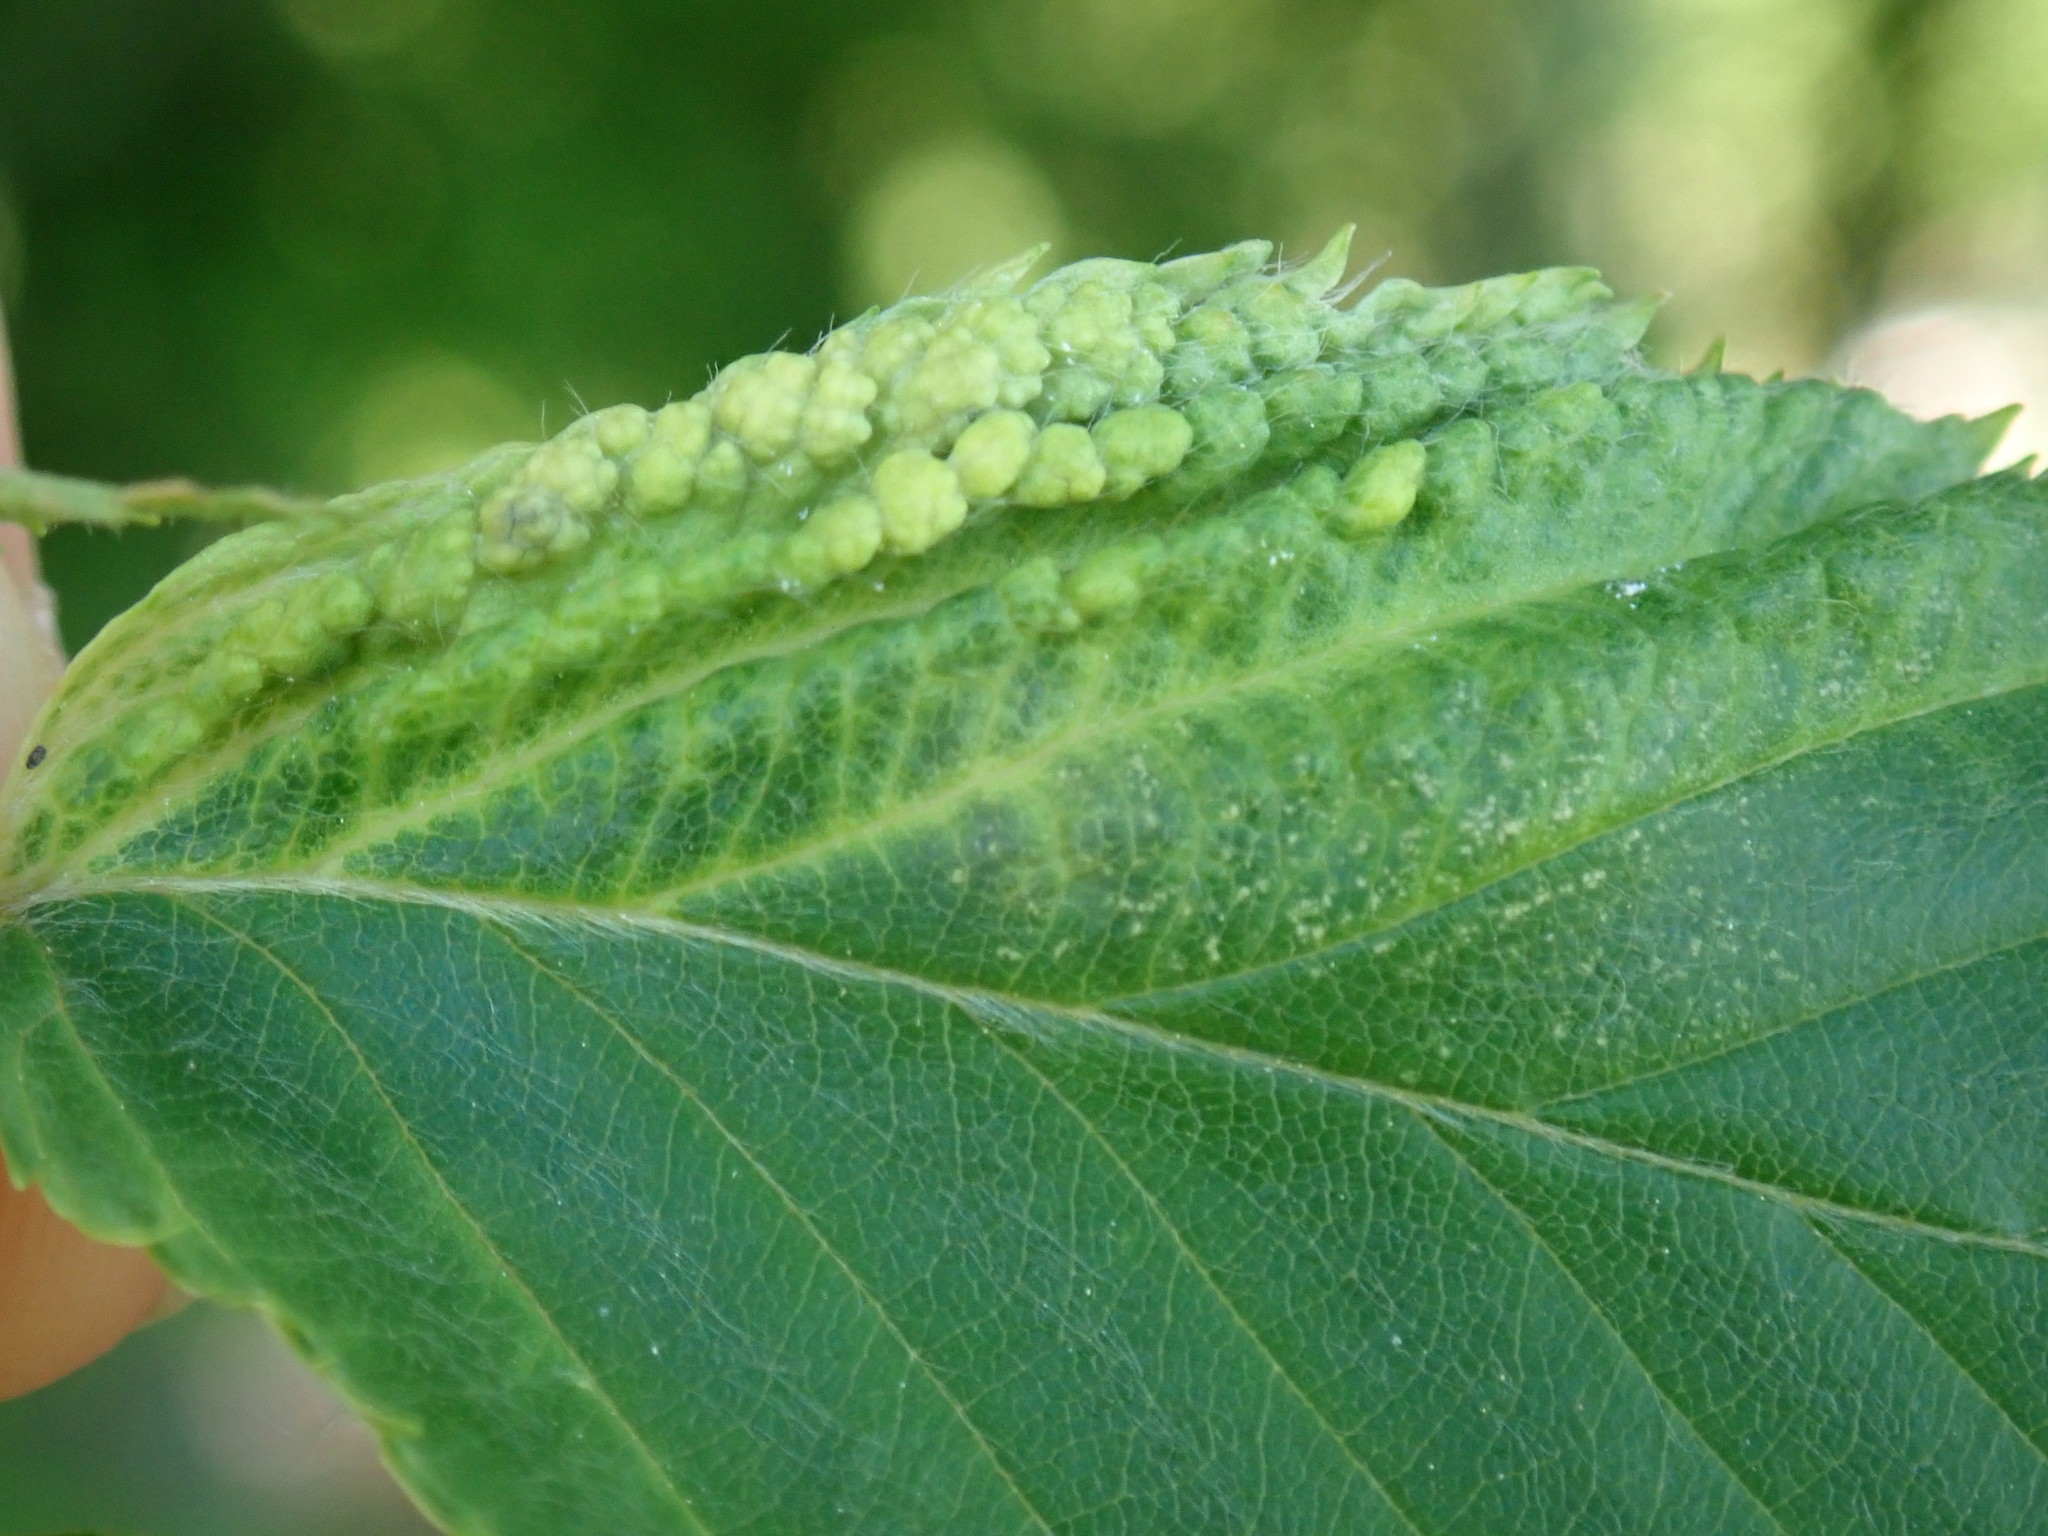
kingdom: Animalia
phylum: Arthropoda
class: Insecta
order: Hemiptera
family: Aphididae
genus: Hamamelistes
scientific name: Hamamelistes spinosus
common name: Witch hazel gall aphid
